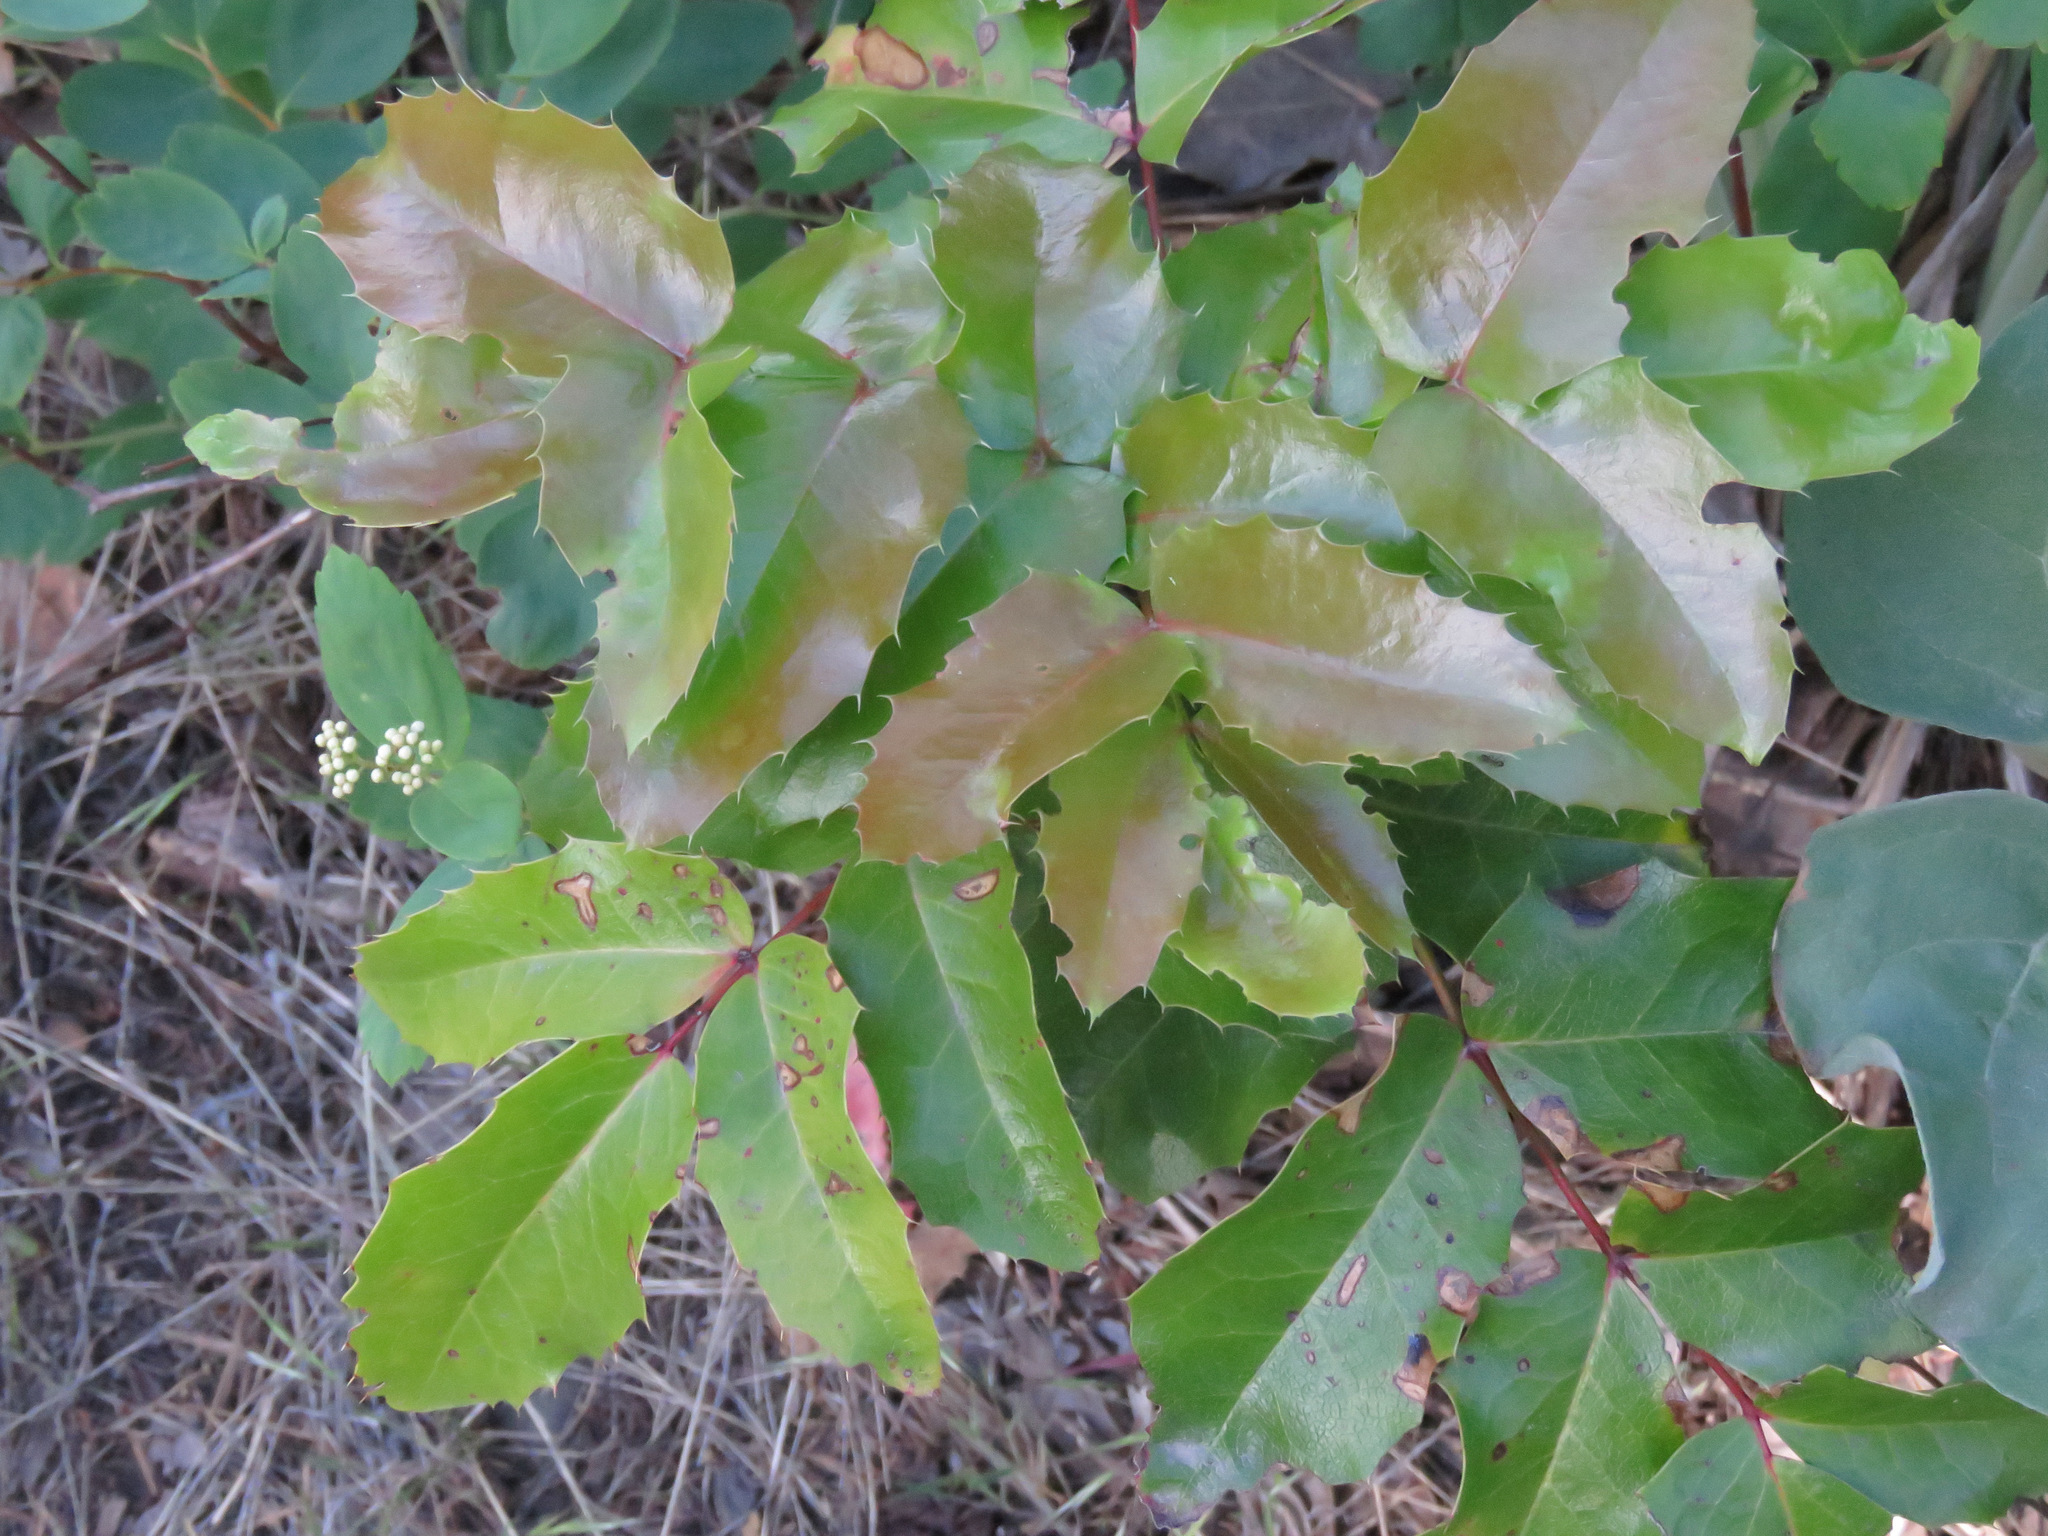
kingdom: Plantae
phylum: Tracheophyta
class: Magnoliopsida
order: Ranunculales
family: Berberidaceae
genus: Mahonia
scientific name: Mahonia aquifolium
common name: Oregon-grape
